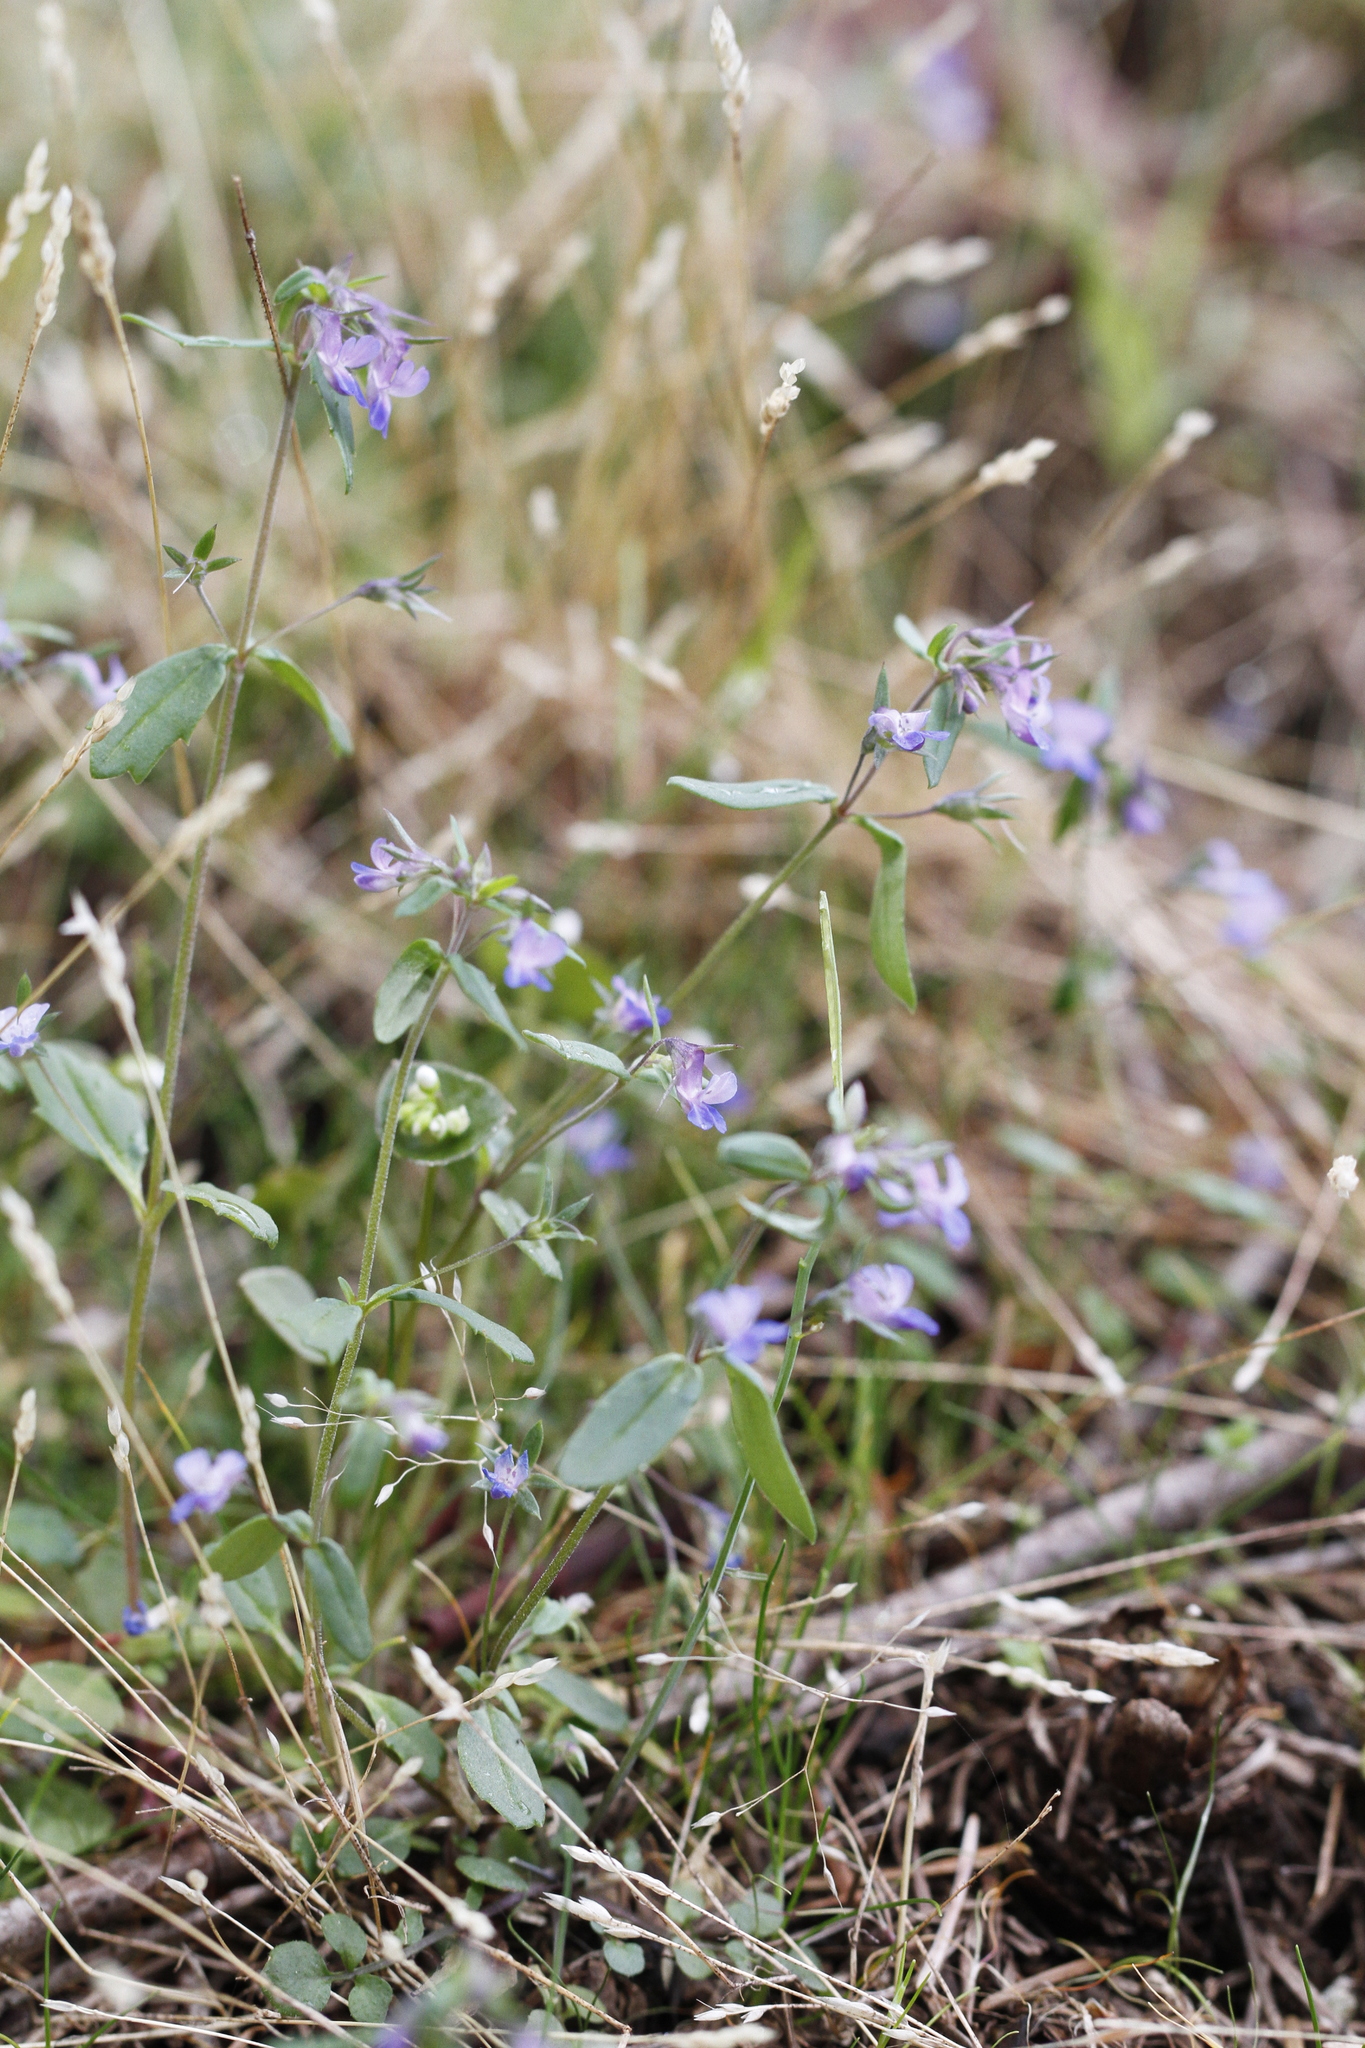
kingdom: Plantae
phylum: Tracheophyta
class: Magnoliopsida
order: Lamiales
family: Plantaginaceae
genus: Collinsia
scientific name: Collinsia parviflora
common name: Blue-lips
